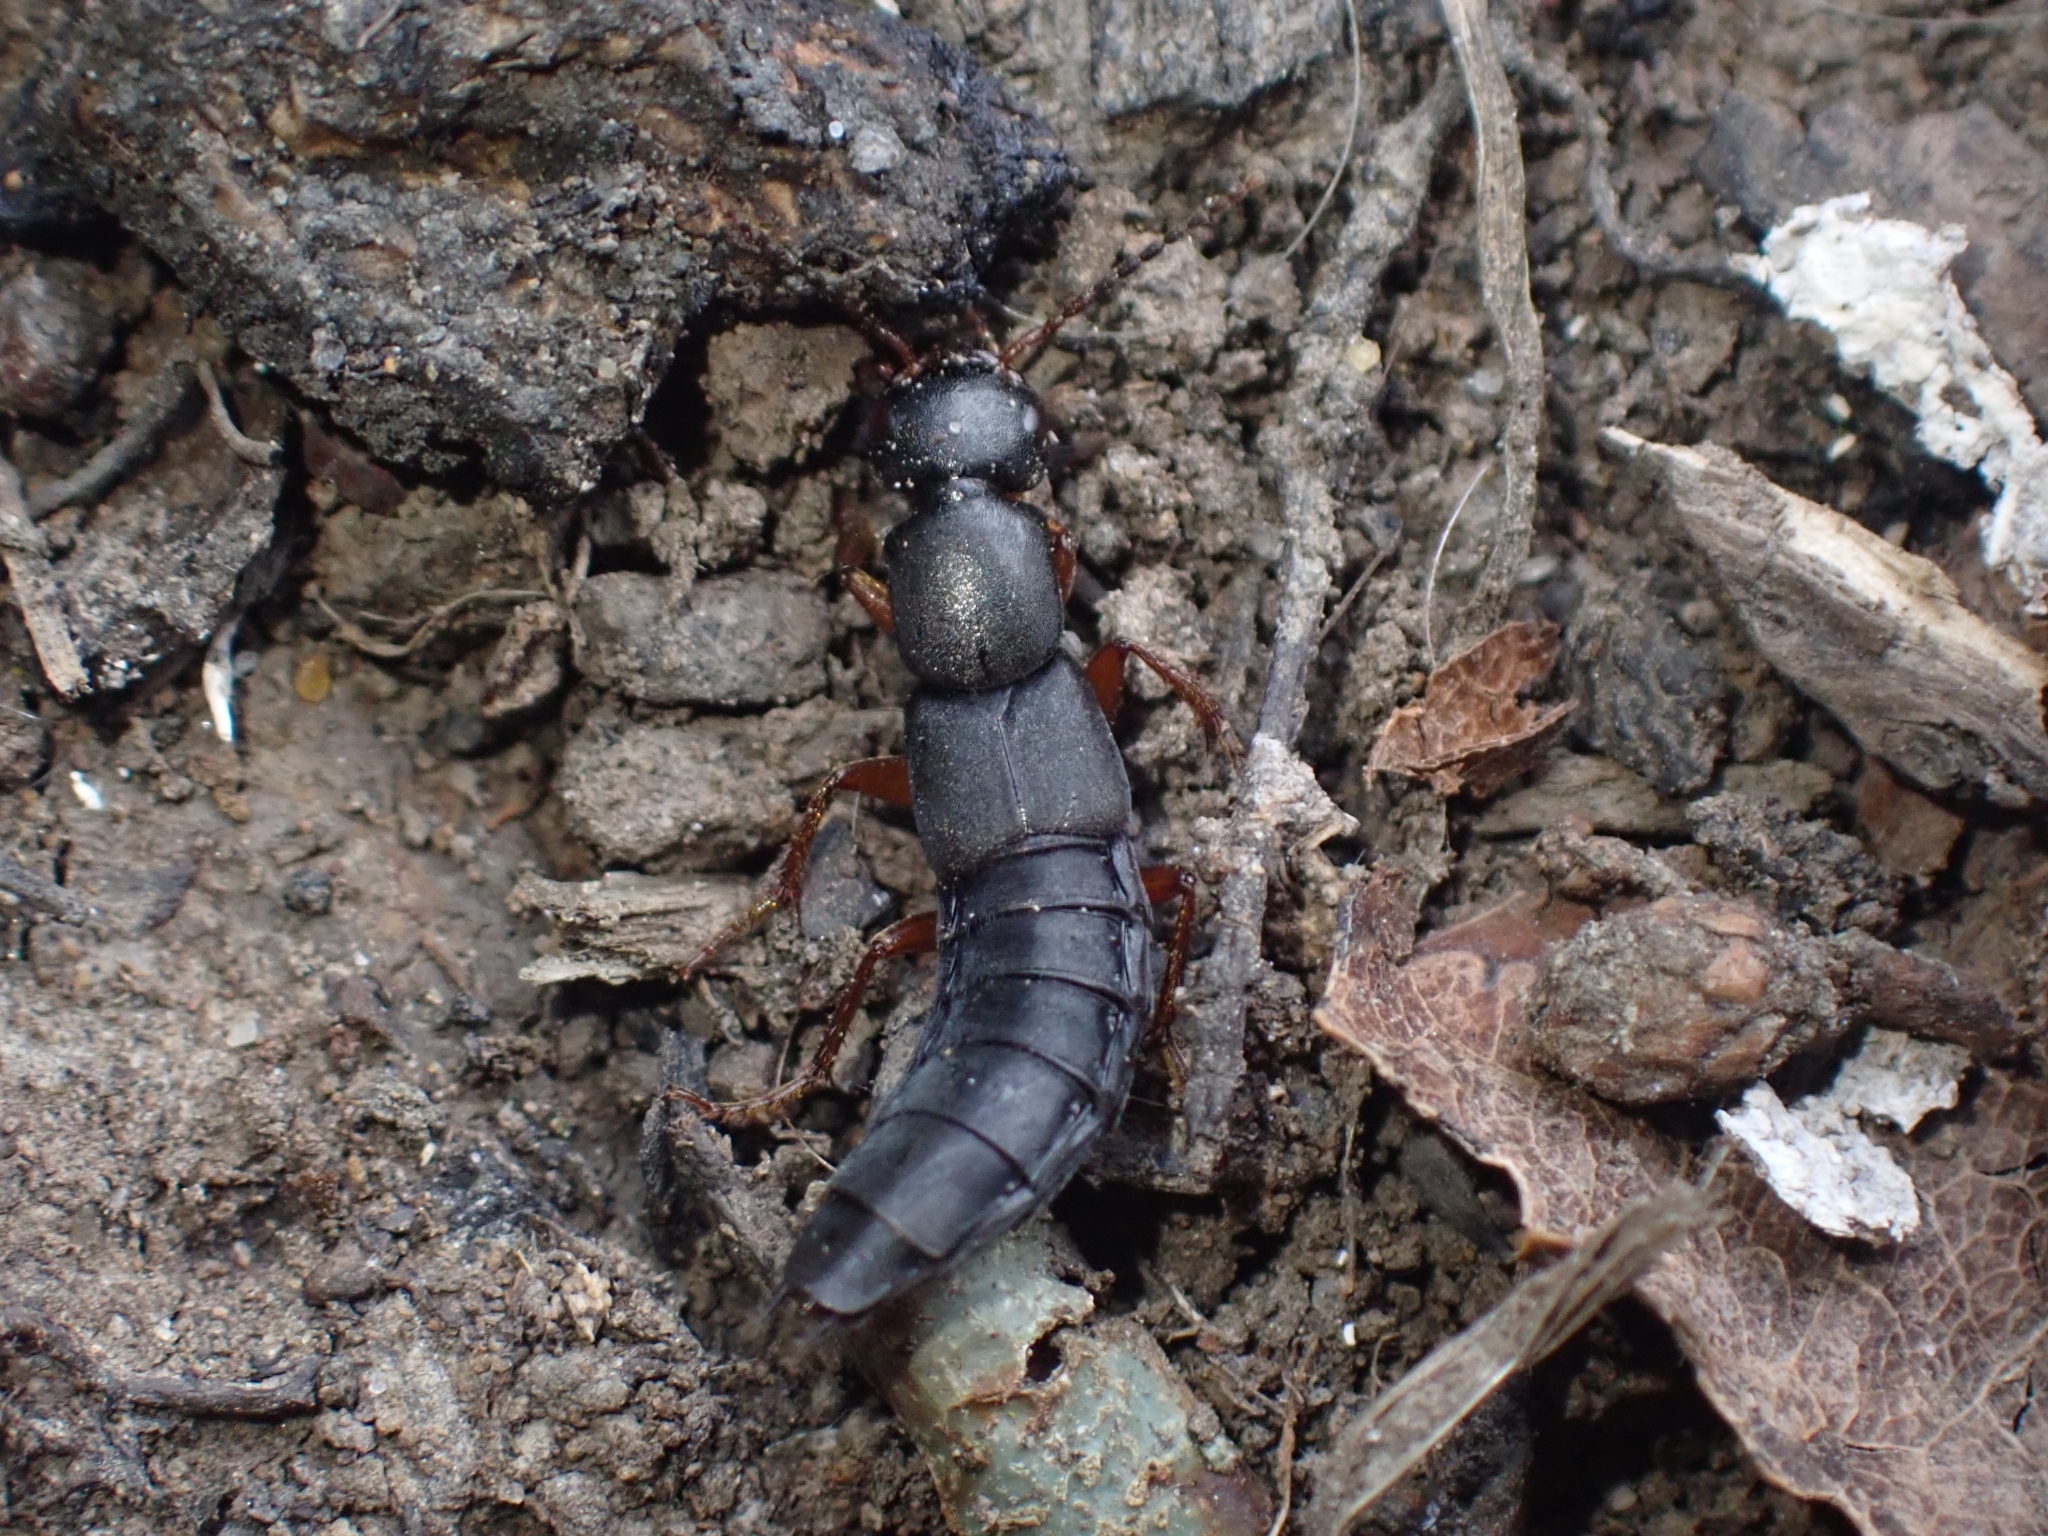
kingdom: Animalia
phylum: Arthropoda
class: Insecta
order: Coleoptera
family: Staphylinidae
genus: Tasgius
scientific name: Tasgius morsitans
